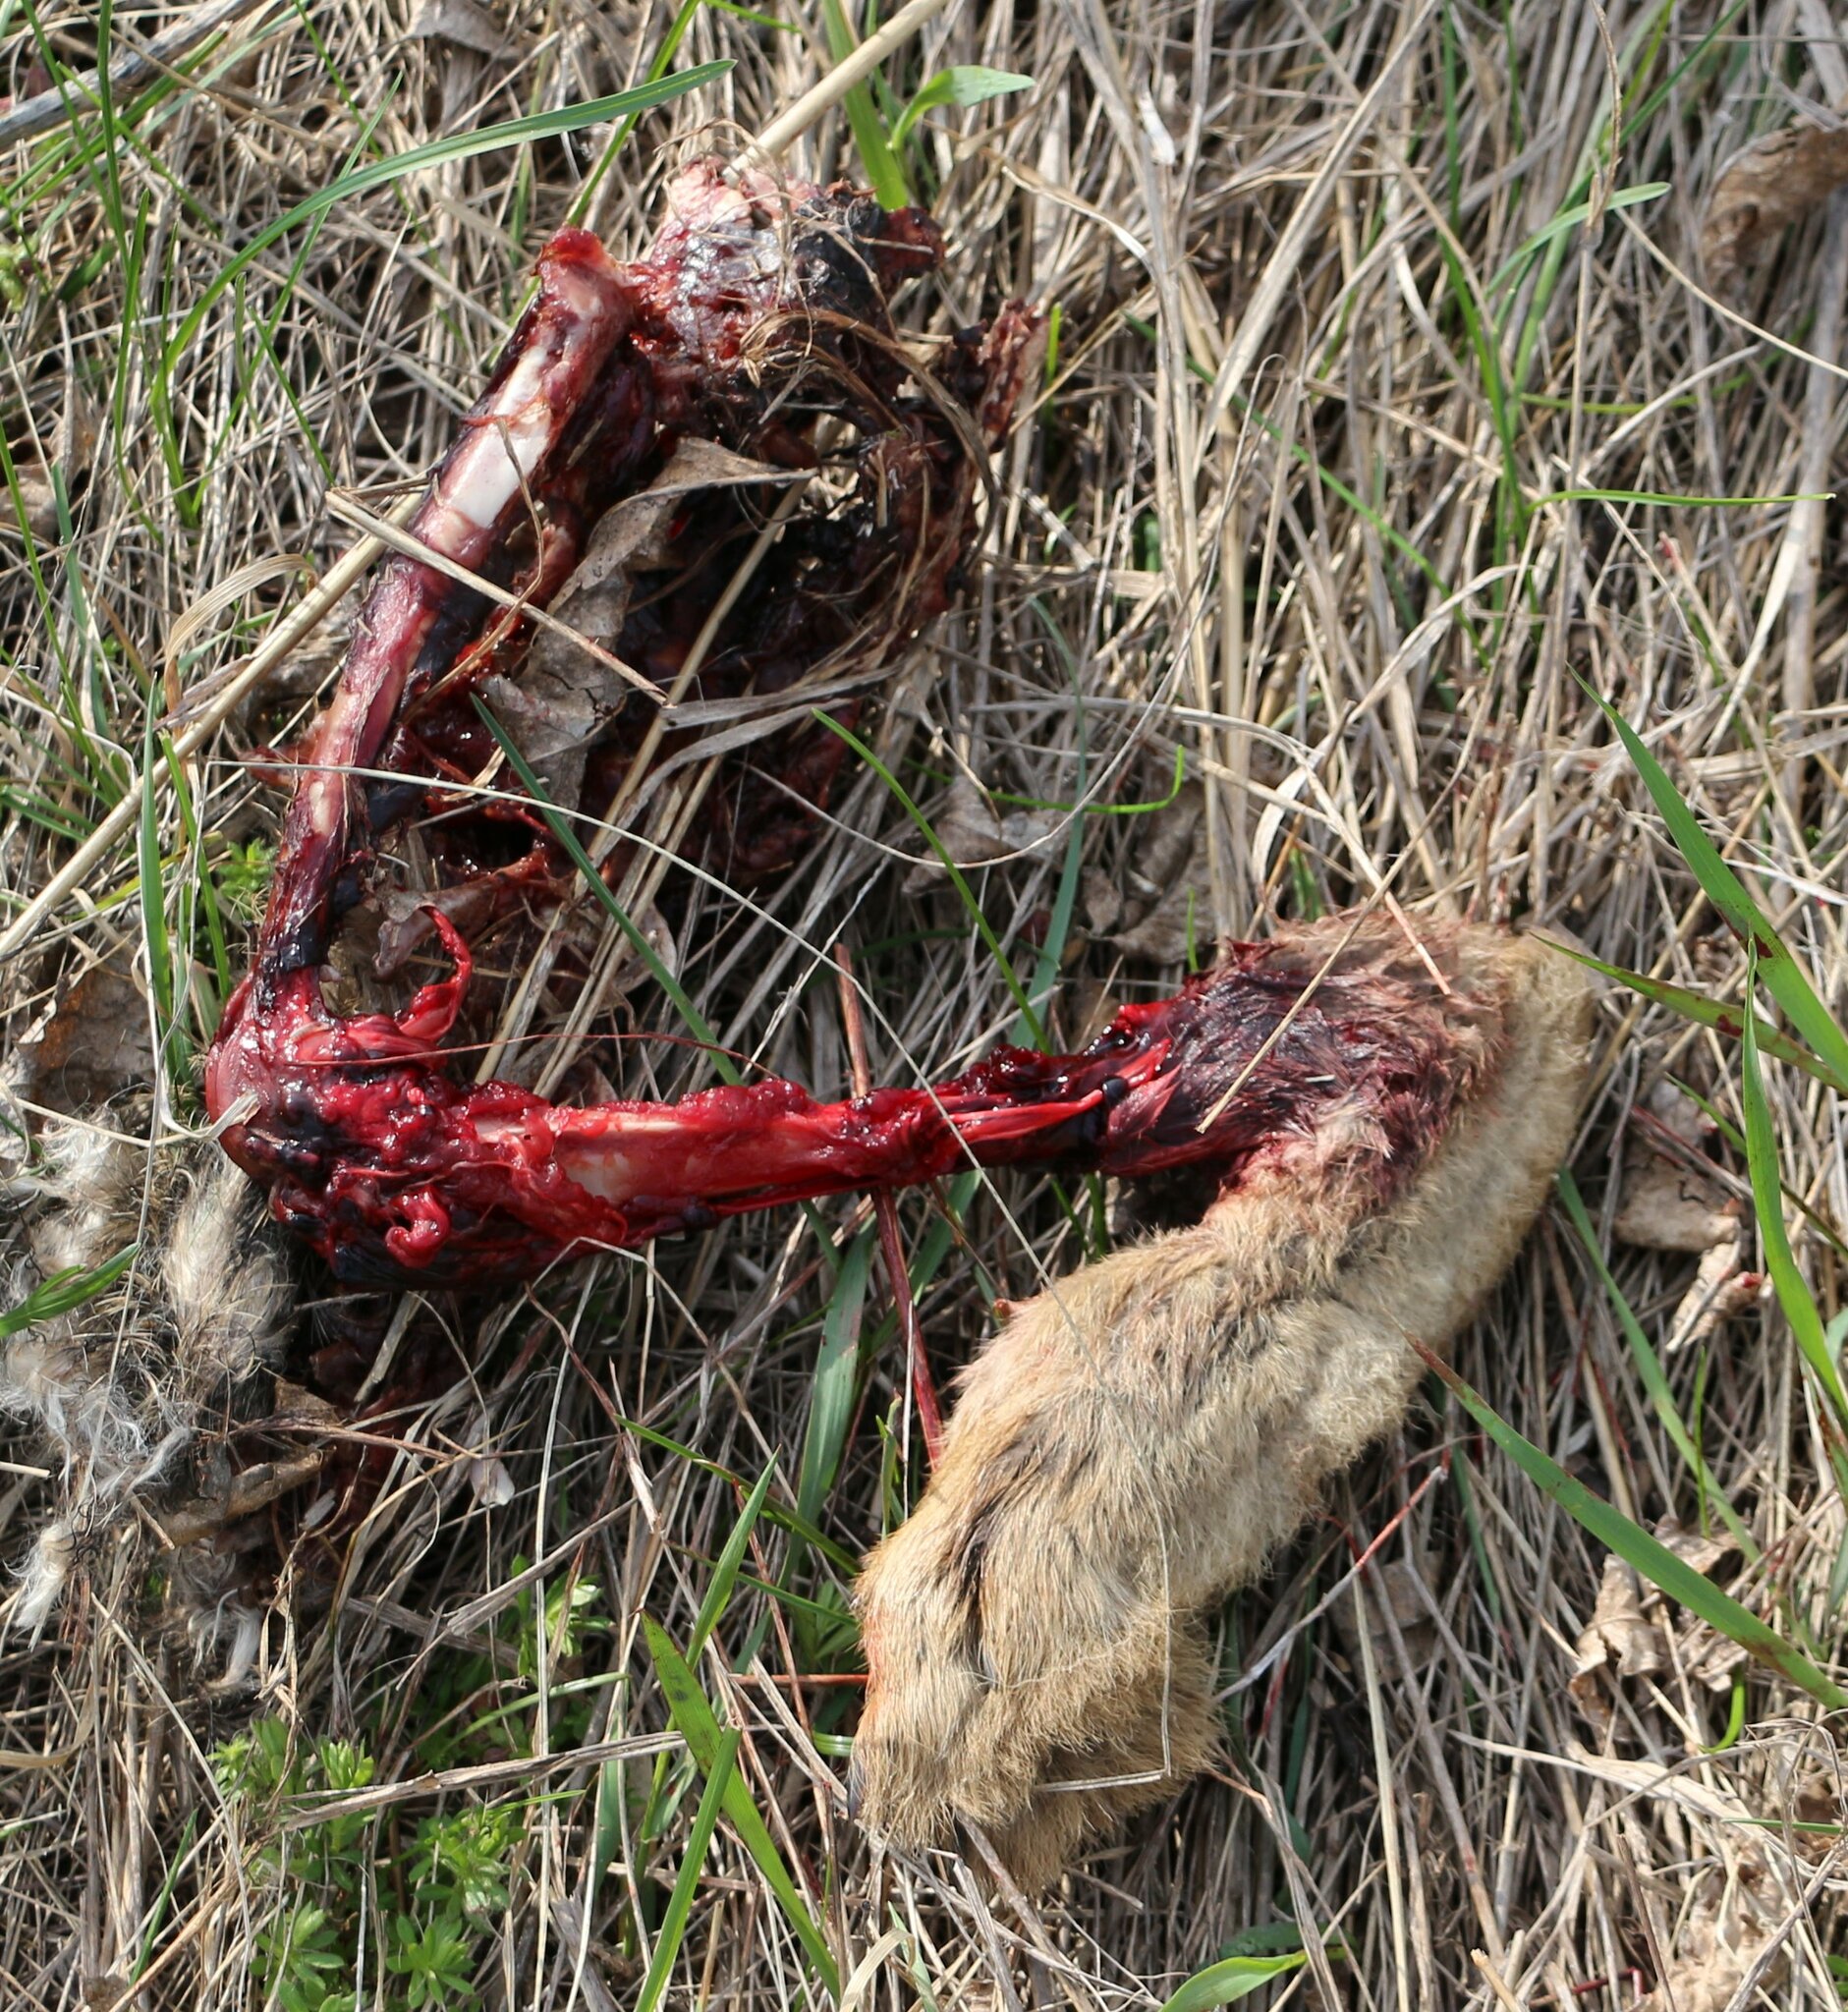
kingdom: Animalia
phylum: Chordata
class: Mammalia
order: Lagomorpha
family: Leporidae
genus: Lepus
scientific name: Lepus europaeus
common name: European hare
